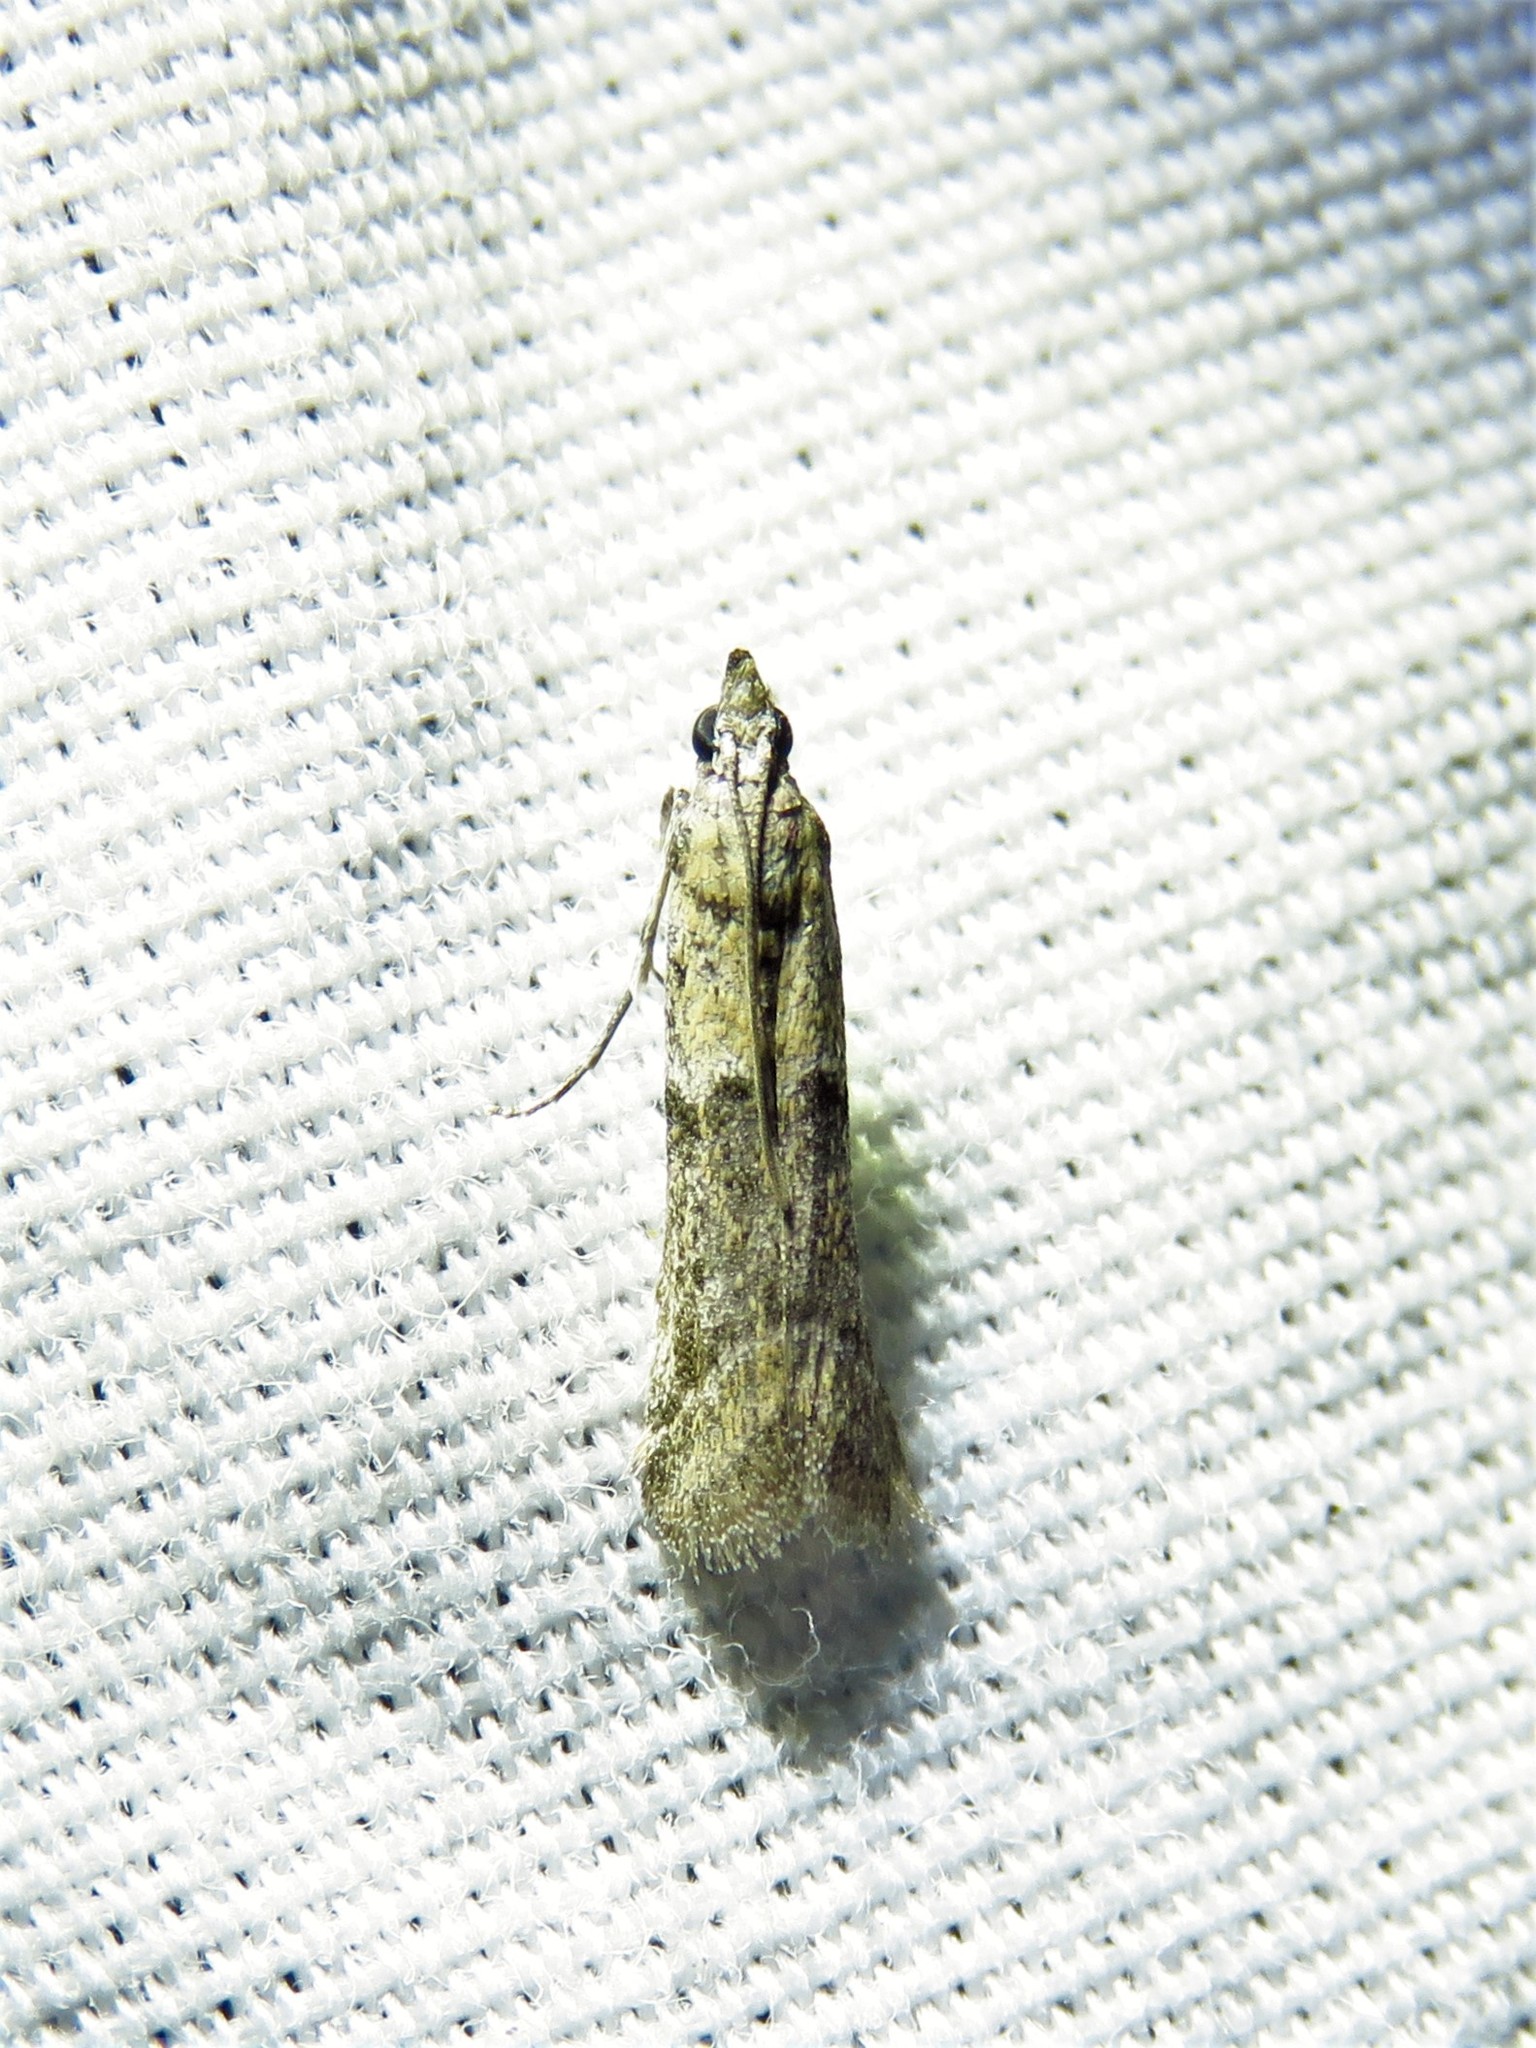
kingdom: Animalia
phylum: Arthropoda
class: Insecta
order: Lepidoptera
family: Pyralidae
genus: Ephestiodes
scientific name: Ephestiodes gilvescentella
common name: Moth
